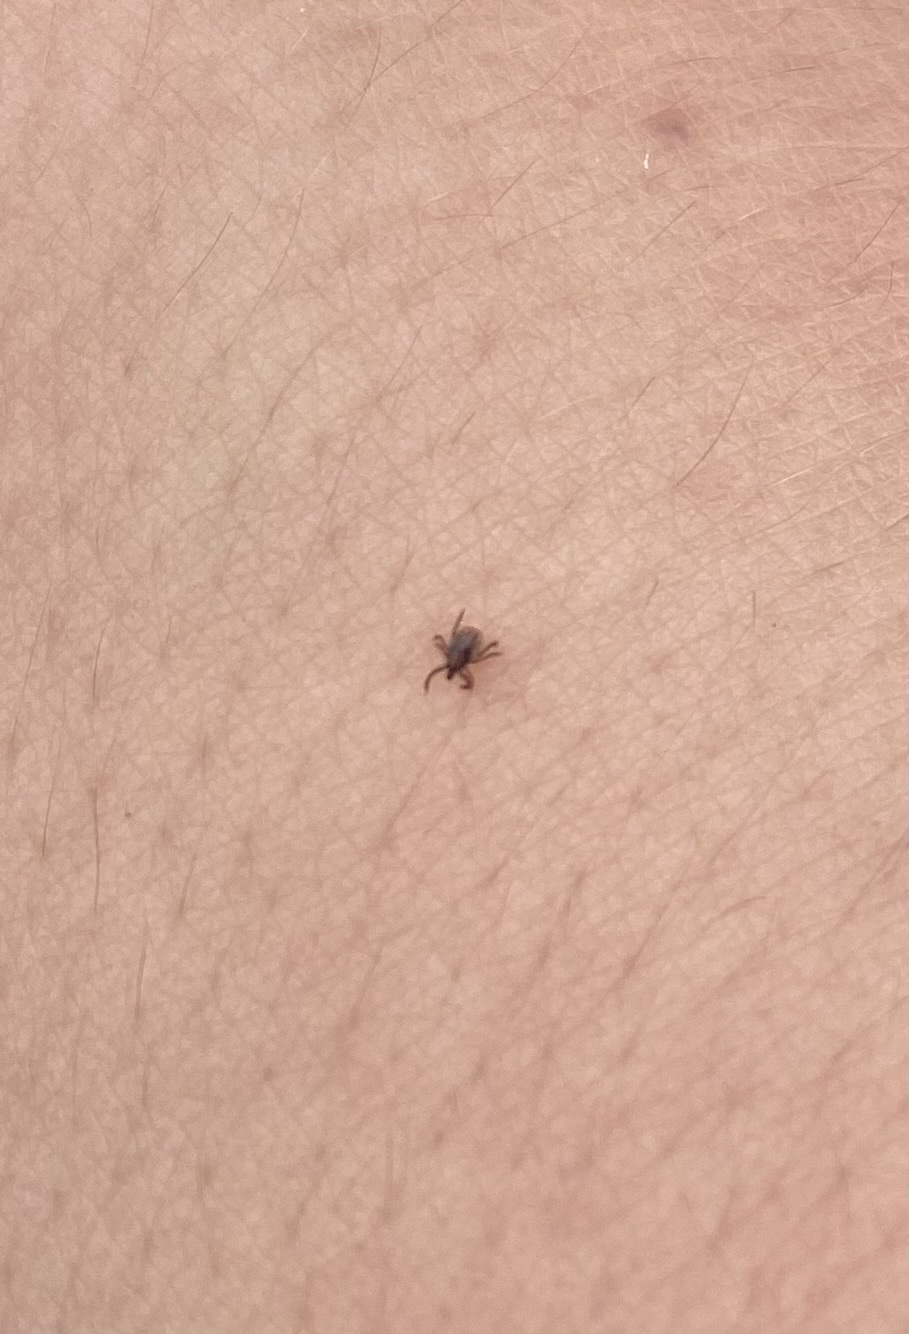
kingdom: Animalia
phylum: Arthropoda
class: Arachnida
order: Ixodida
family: Ixodidae
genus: Ixodes
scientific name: Ixodes
